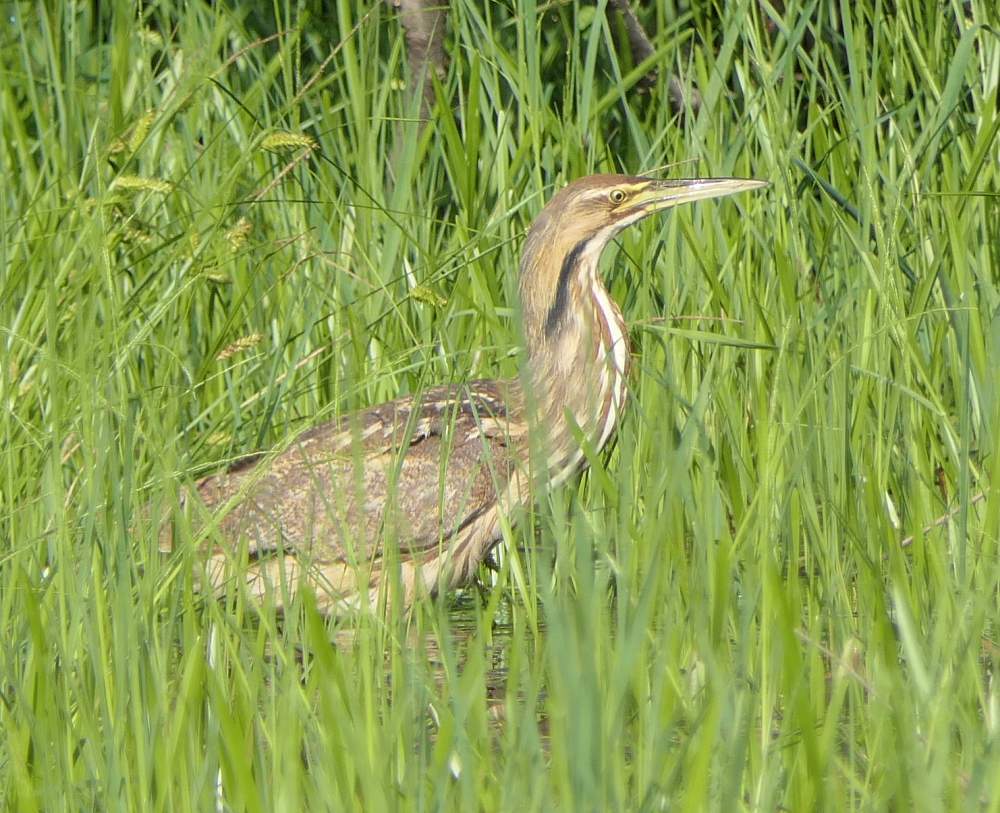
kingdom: Animalia
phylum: Chordata
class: Aves
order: Pelecaniformes
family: Ardeidae
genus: Botaurus
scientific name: Botaurus lentiginosus
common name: American bittern
